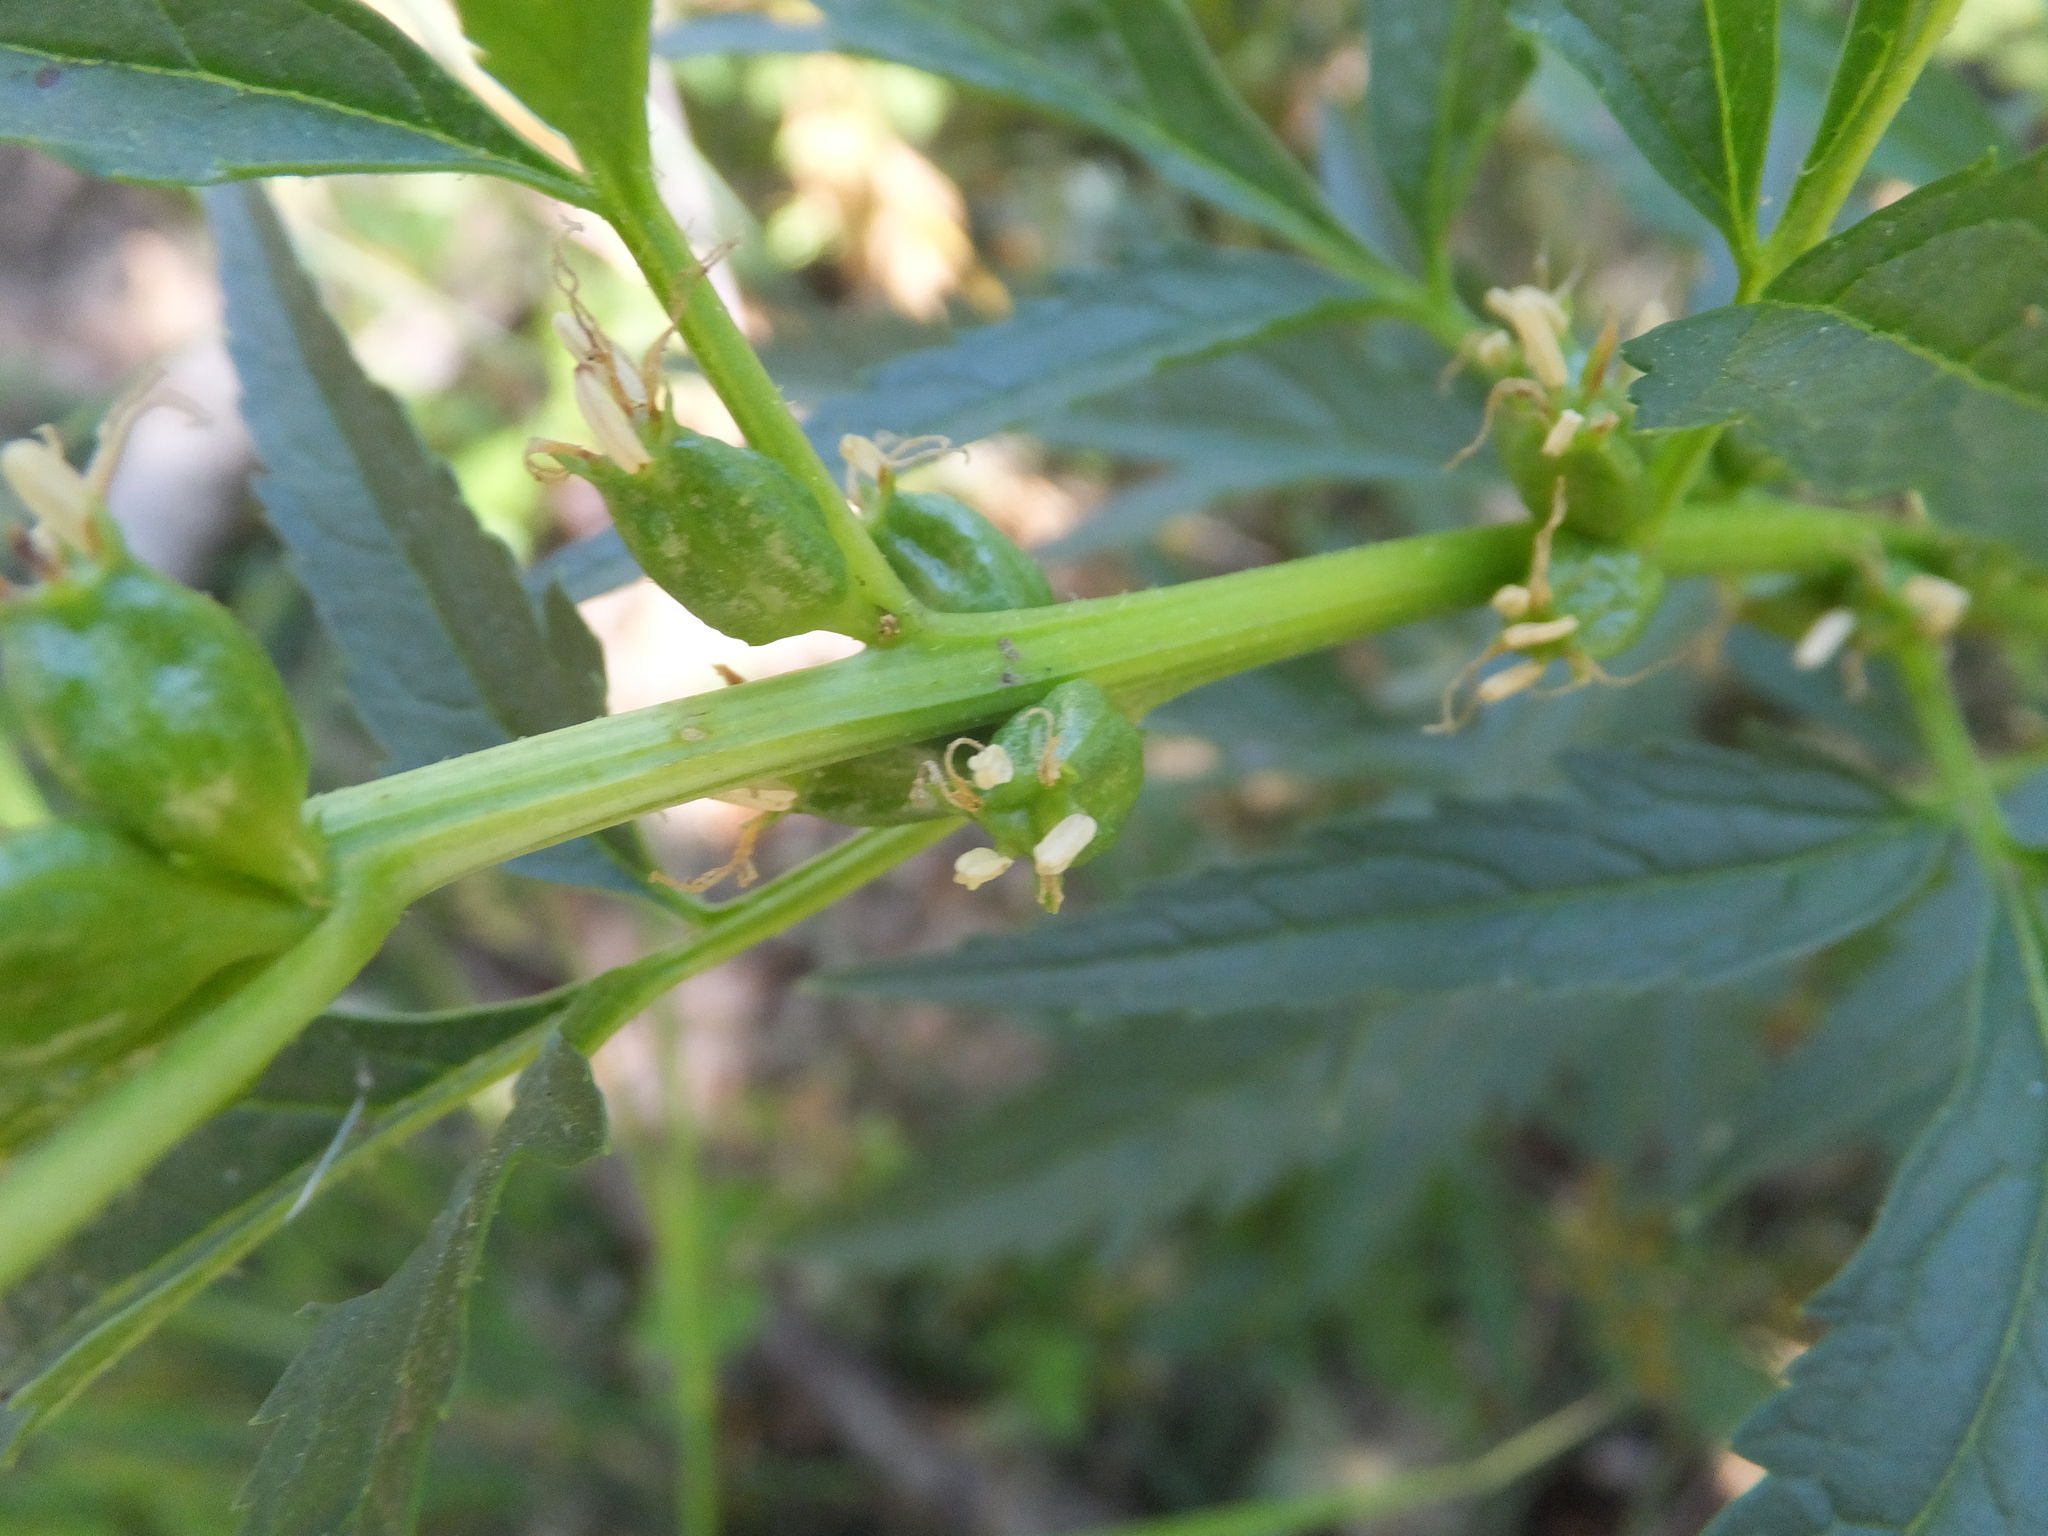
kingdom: Plantae
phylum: Tracheophyta
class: Magnoliopsida
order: Cucurbitales
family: Datiscaceae
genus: Datisca
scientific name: Datisca glomerata
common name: Durango-root
